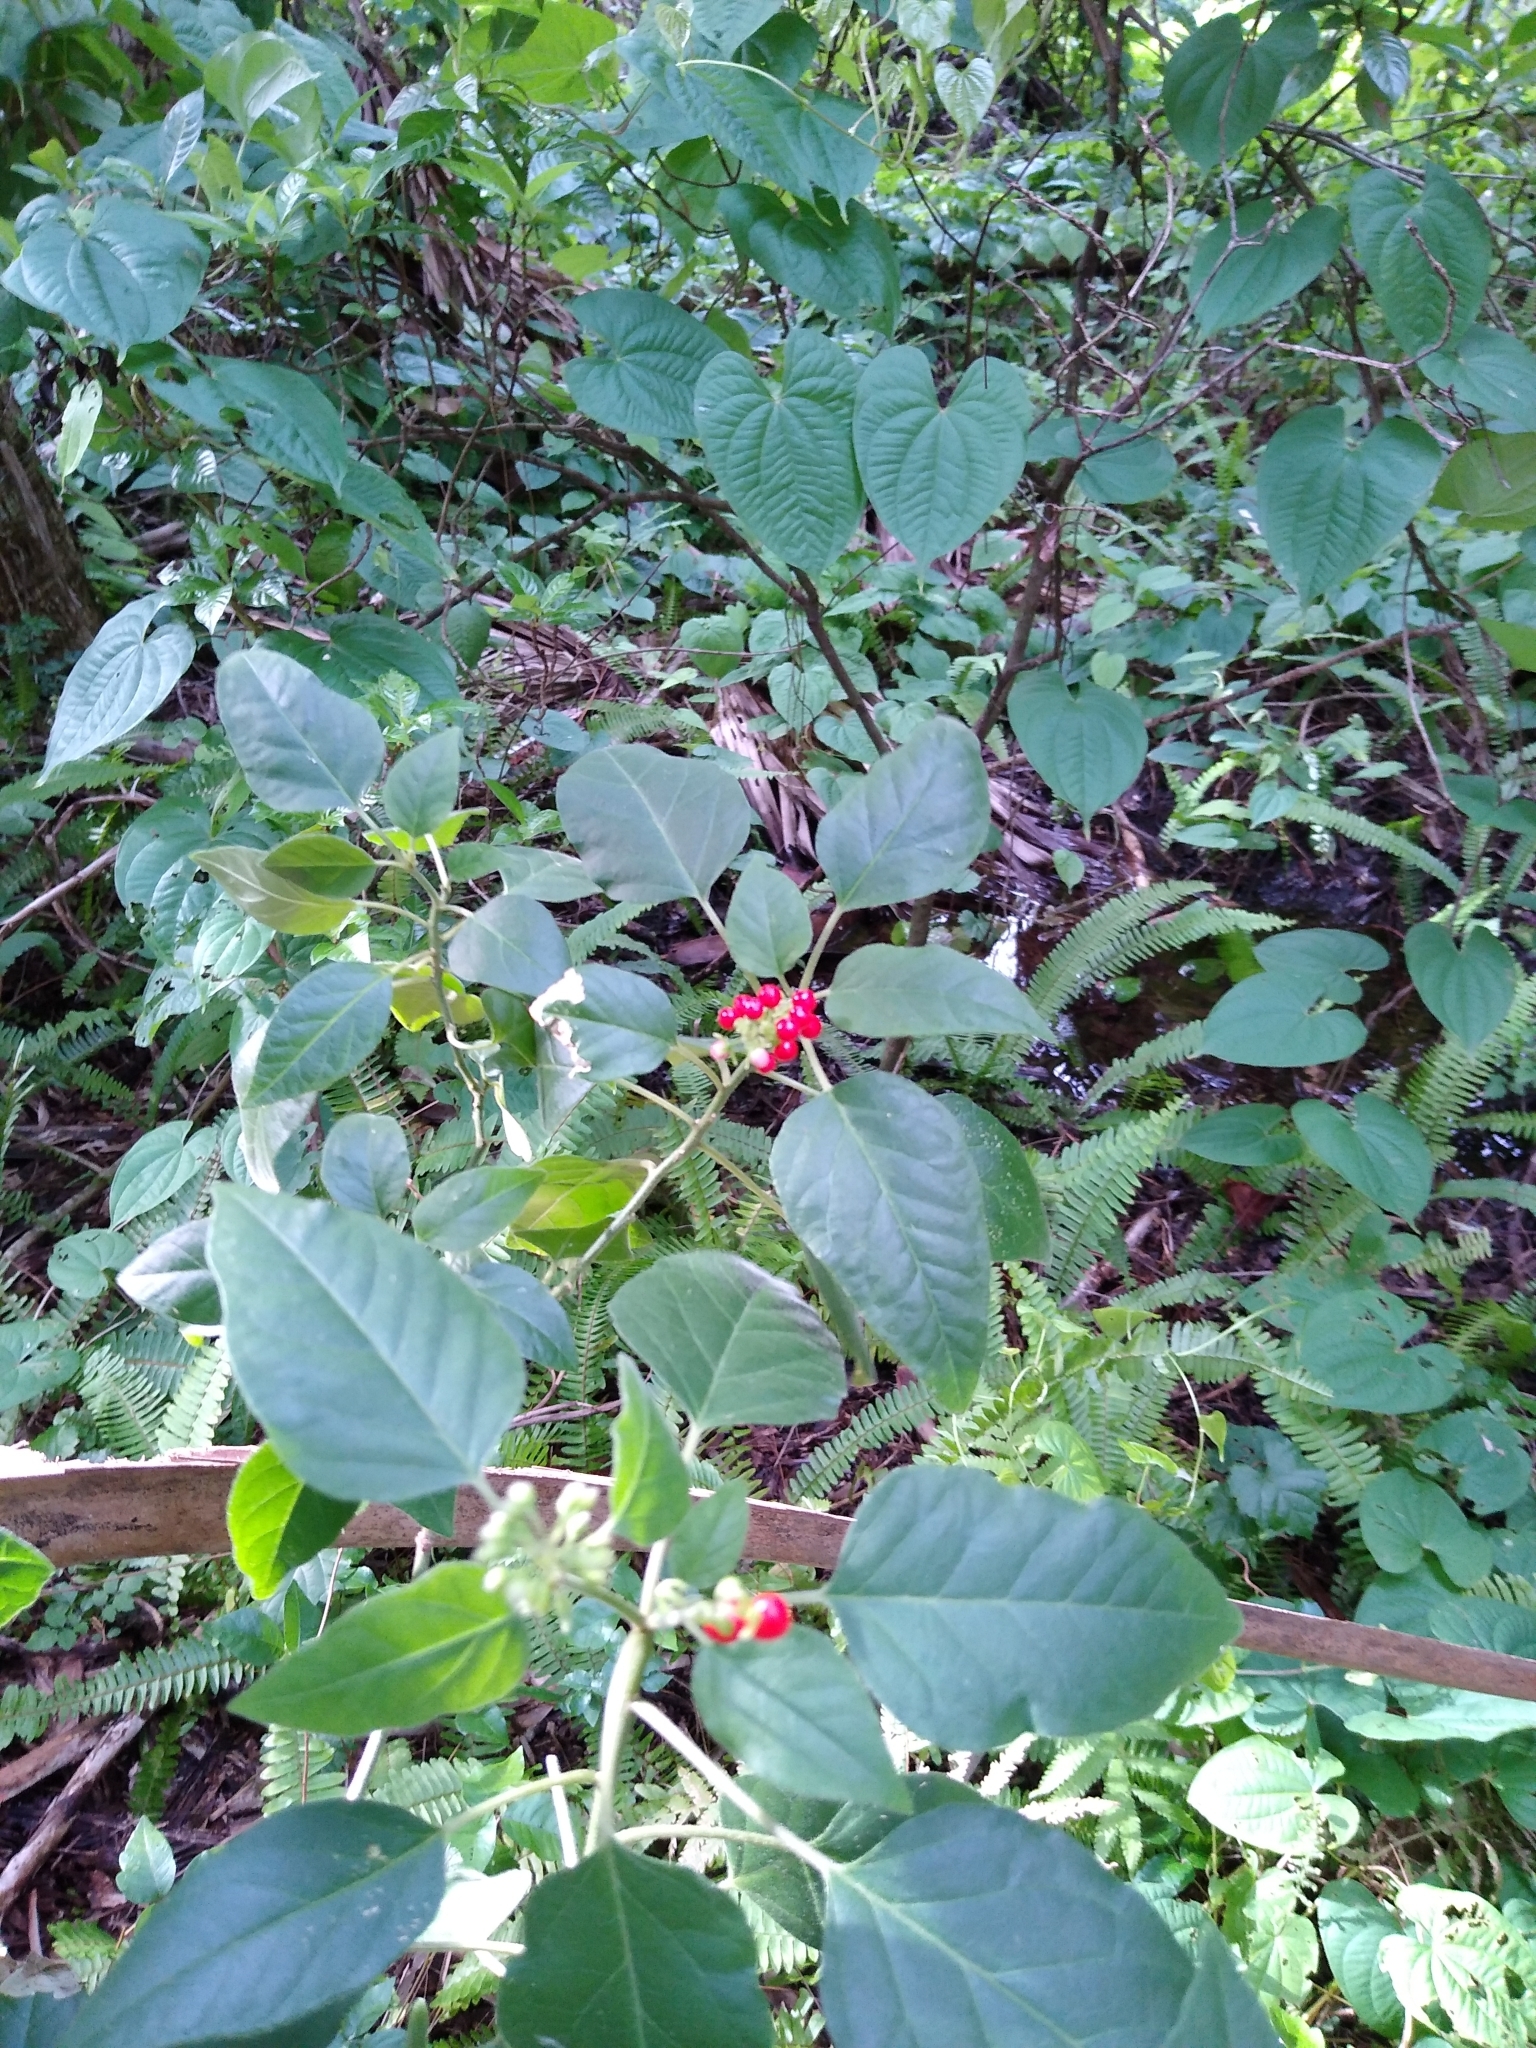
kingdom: Plantae
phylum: Tracheophyta
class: Magnoliopsida
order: Caryophyllales
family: Phytolaccaceae
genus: Rivina
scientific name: Rivina humilis
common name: Rougeplant
